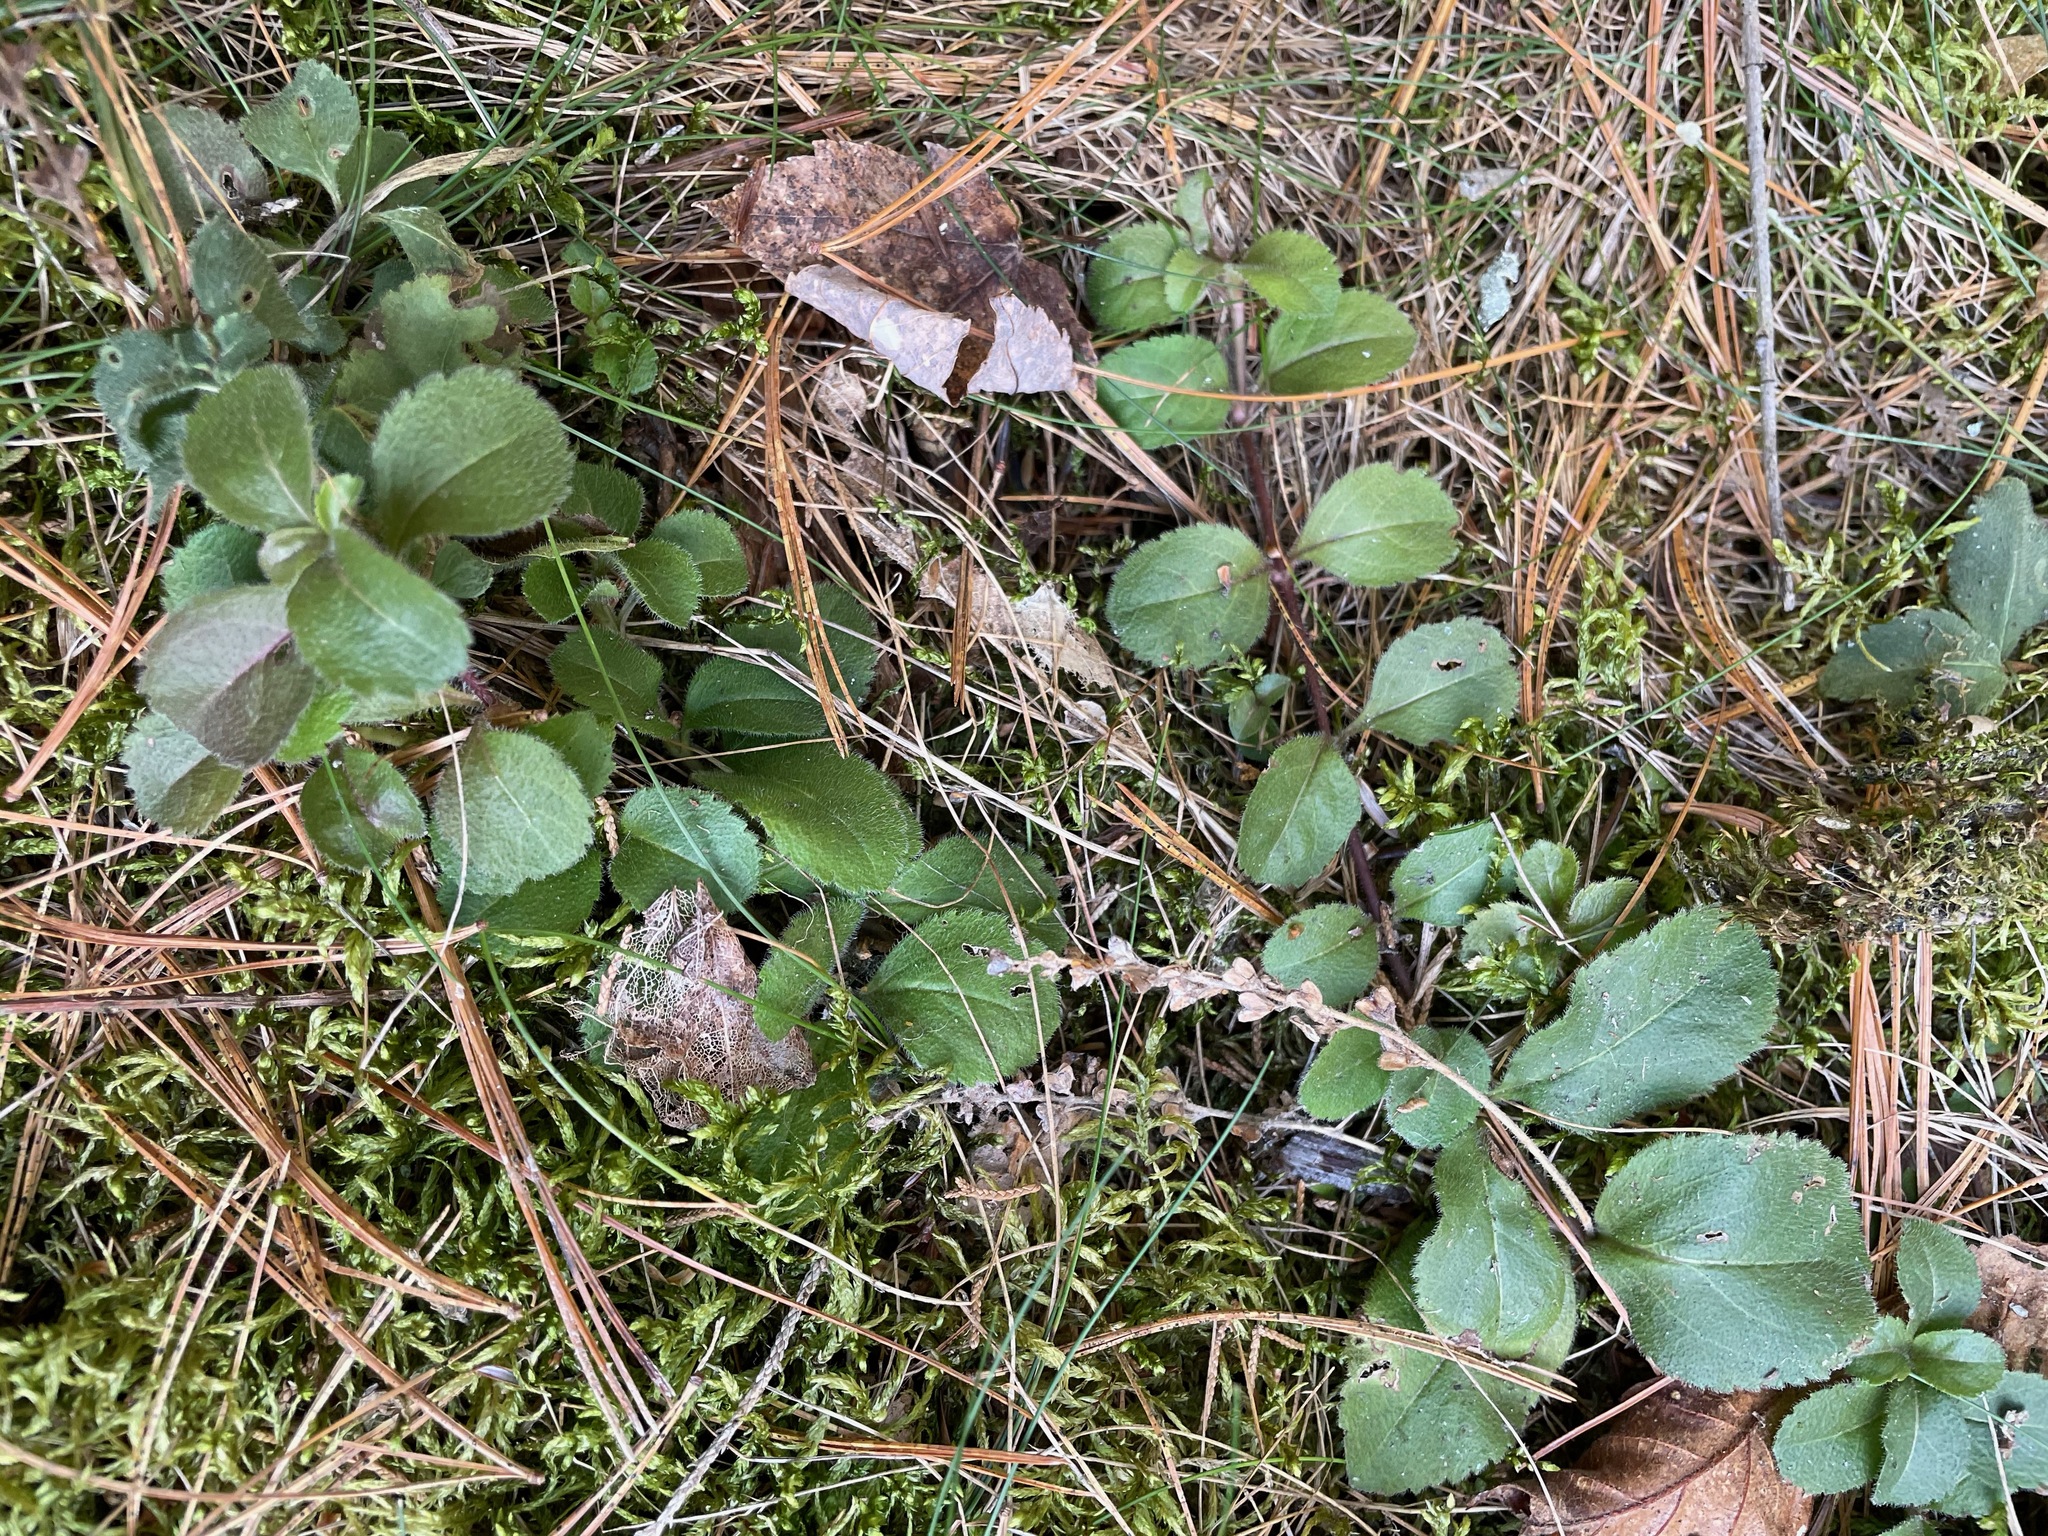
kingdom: Plantae
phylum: Tracheophyta
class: Magnoliopsida
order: Lamiales
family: Plantaginaceae
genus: Veronica
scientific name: Veronica officinalis
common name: Common speedwell
